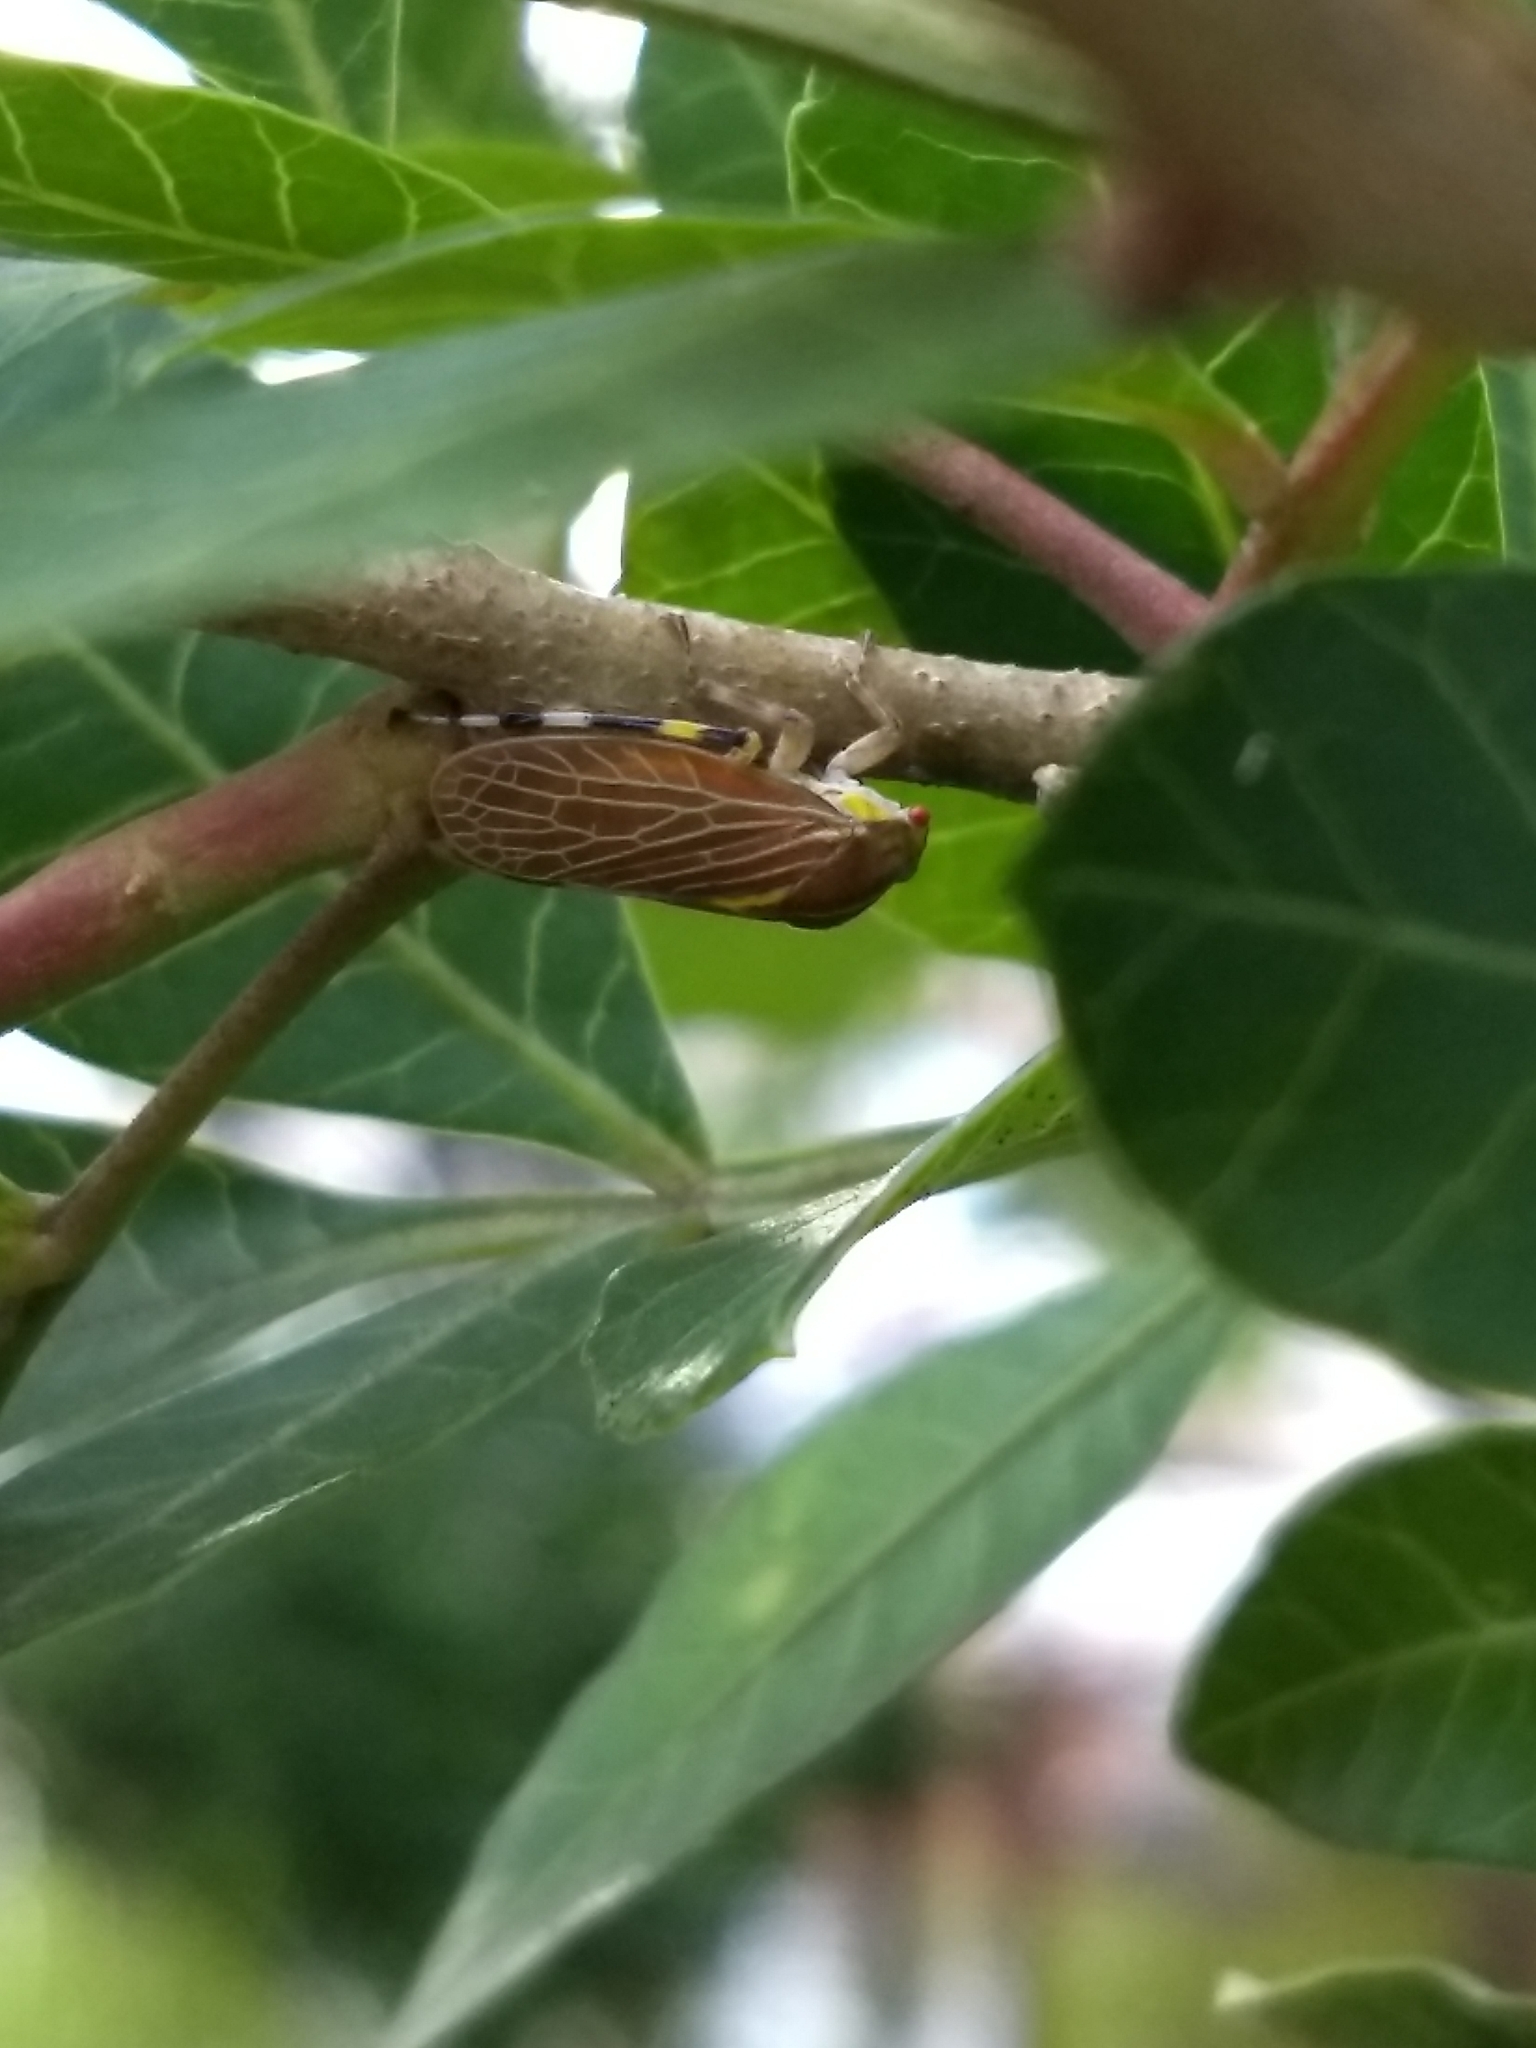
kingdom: Animalia
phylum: Arthropoda
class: Insecta
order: Hemiptera
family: Aetalionidae
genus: Aetalion
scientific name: Aetalion reticulatum
